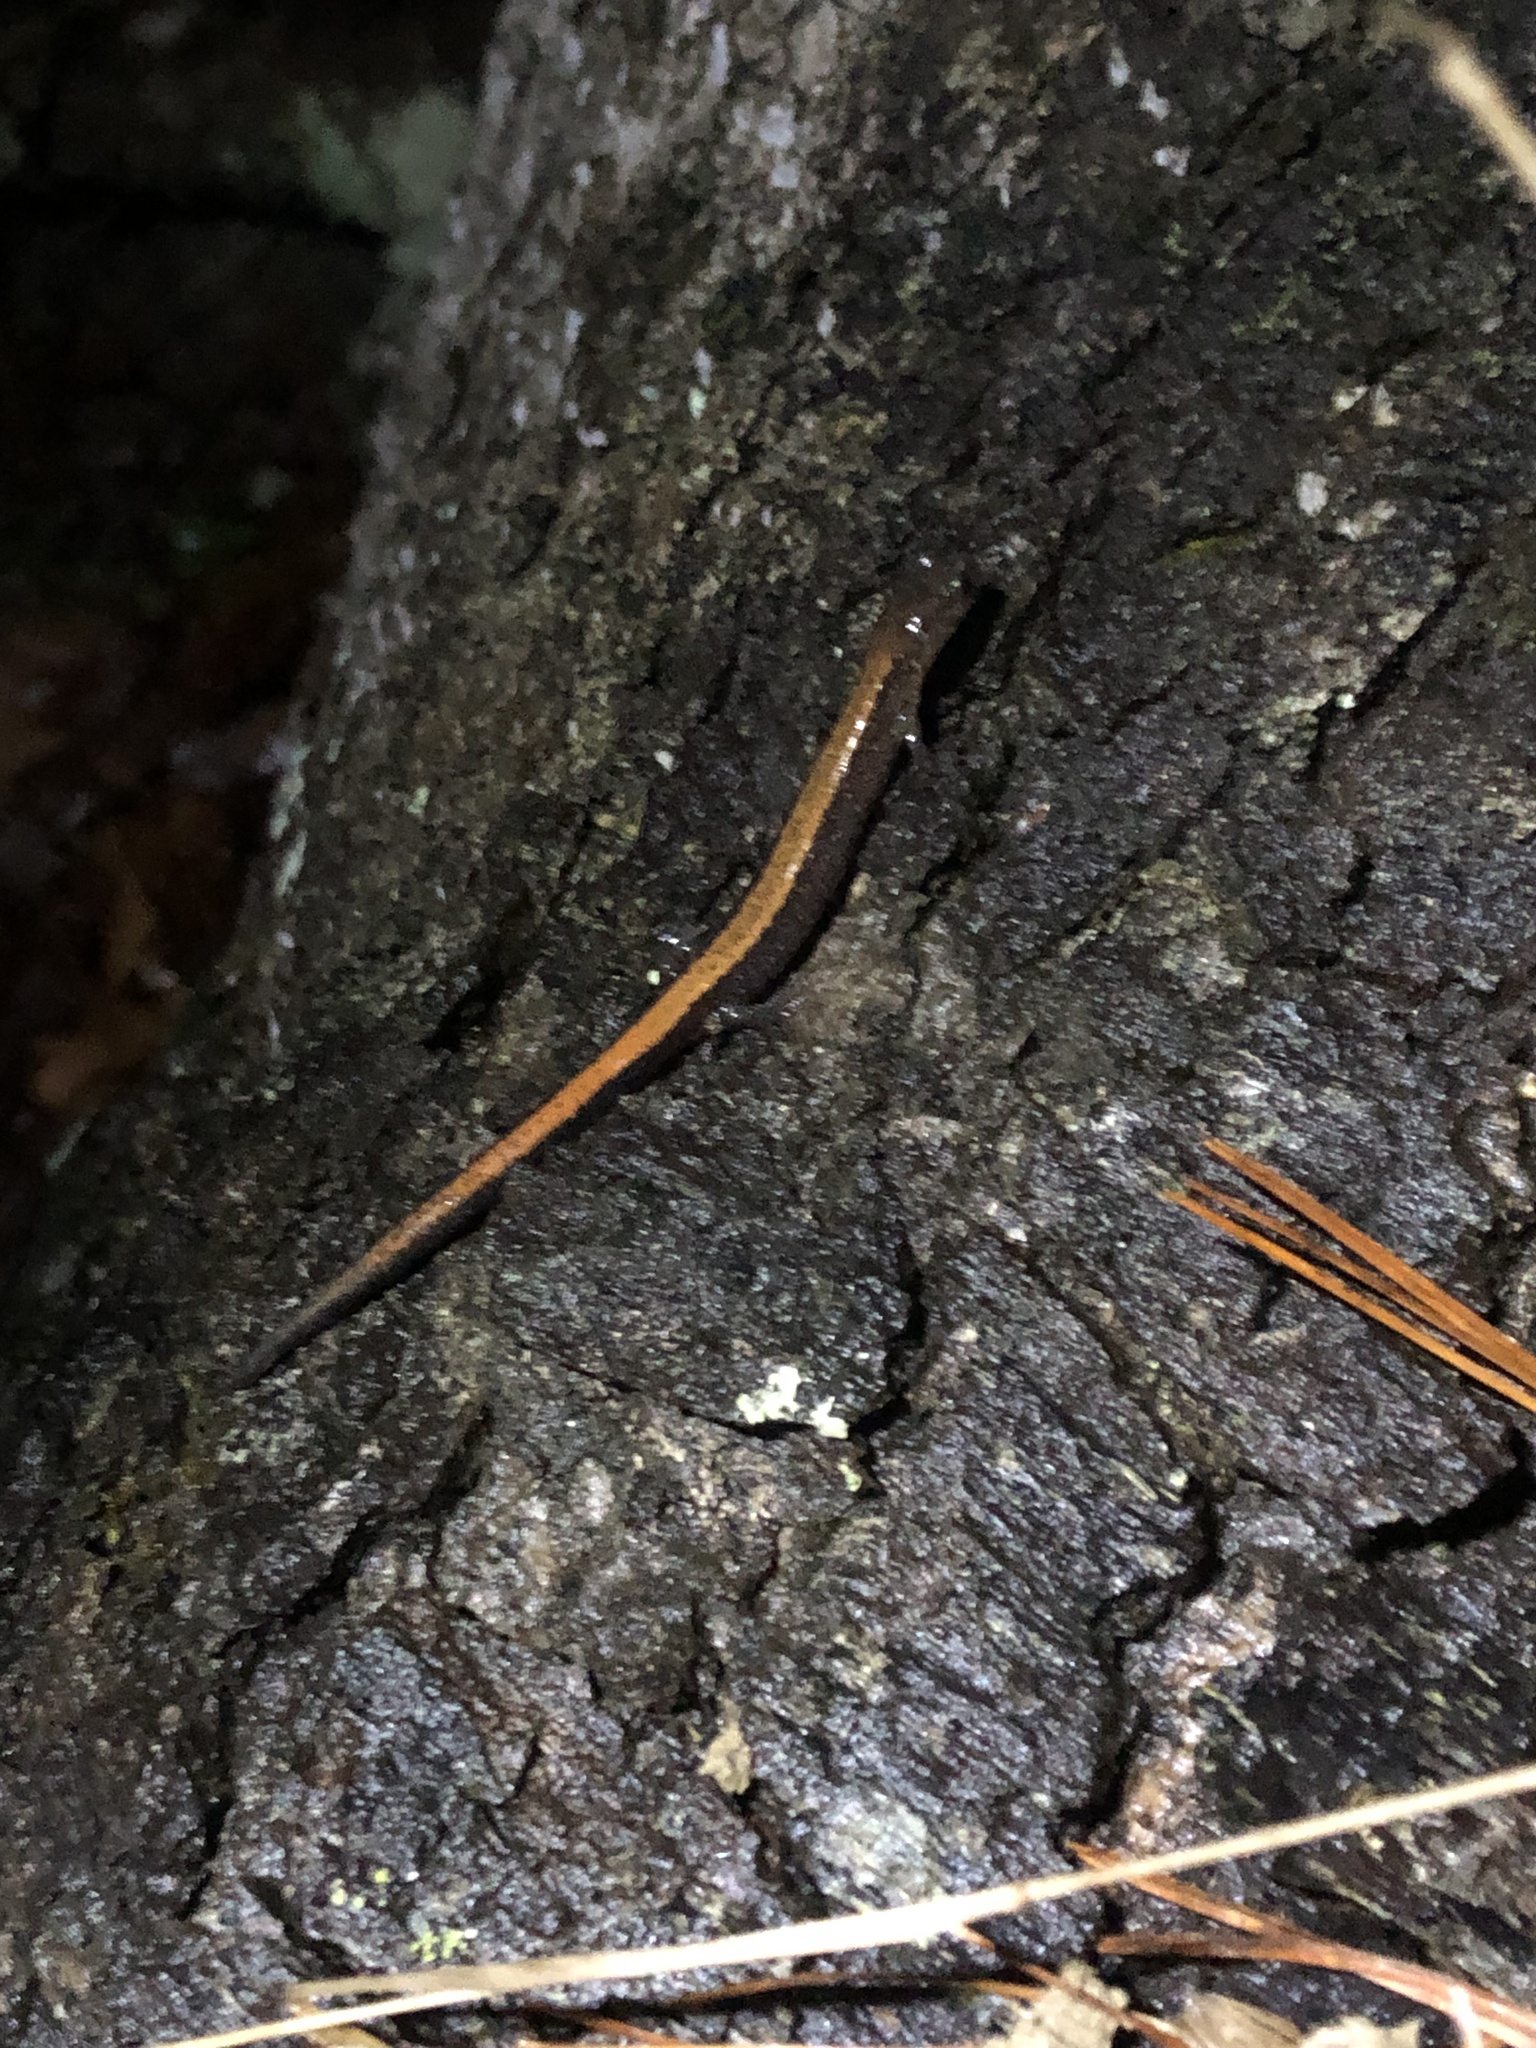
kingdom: Animalia
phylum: Chordata
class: Amphibia
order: Caudata
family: Plethodontidae
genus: Plethodon
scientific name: Plethodon cinereus
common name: Redback salamander
